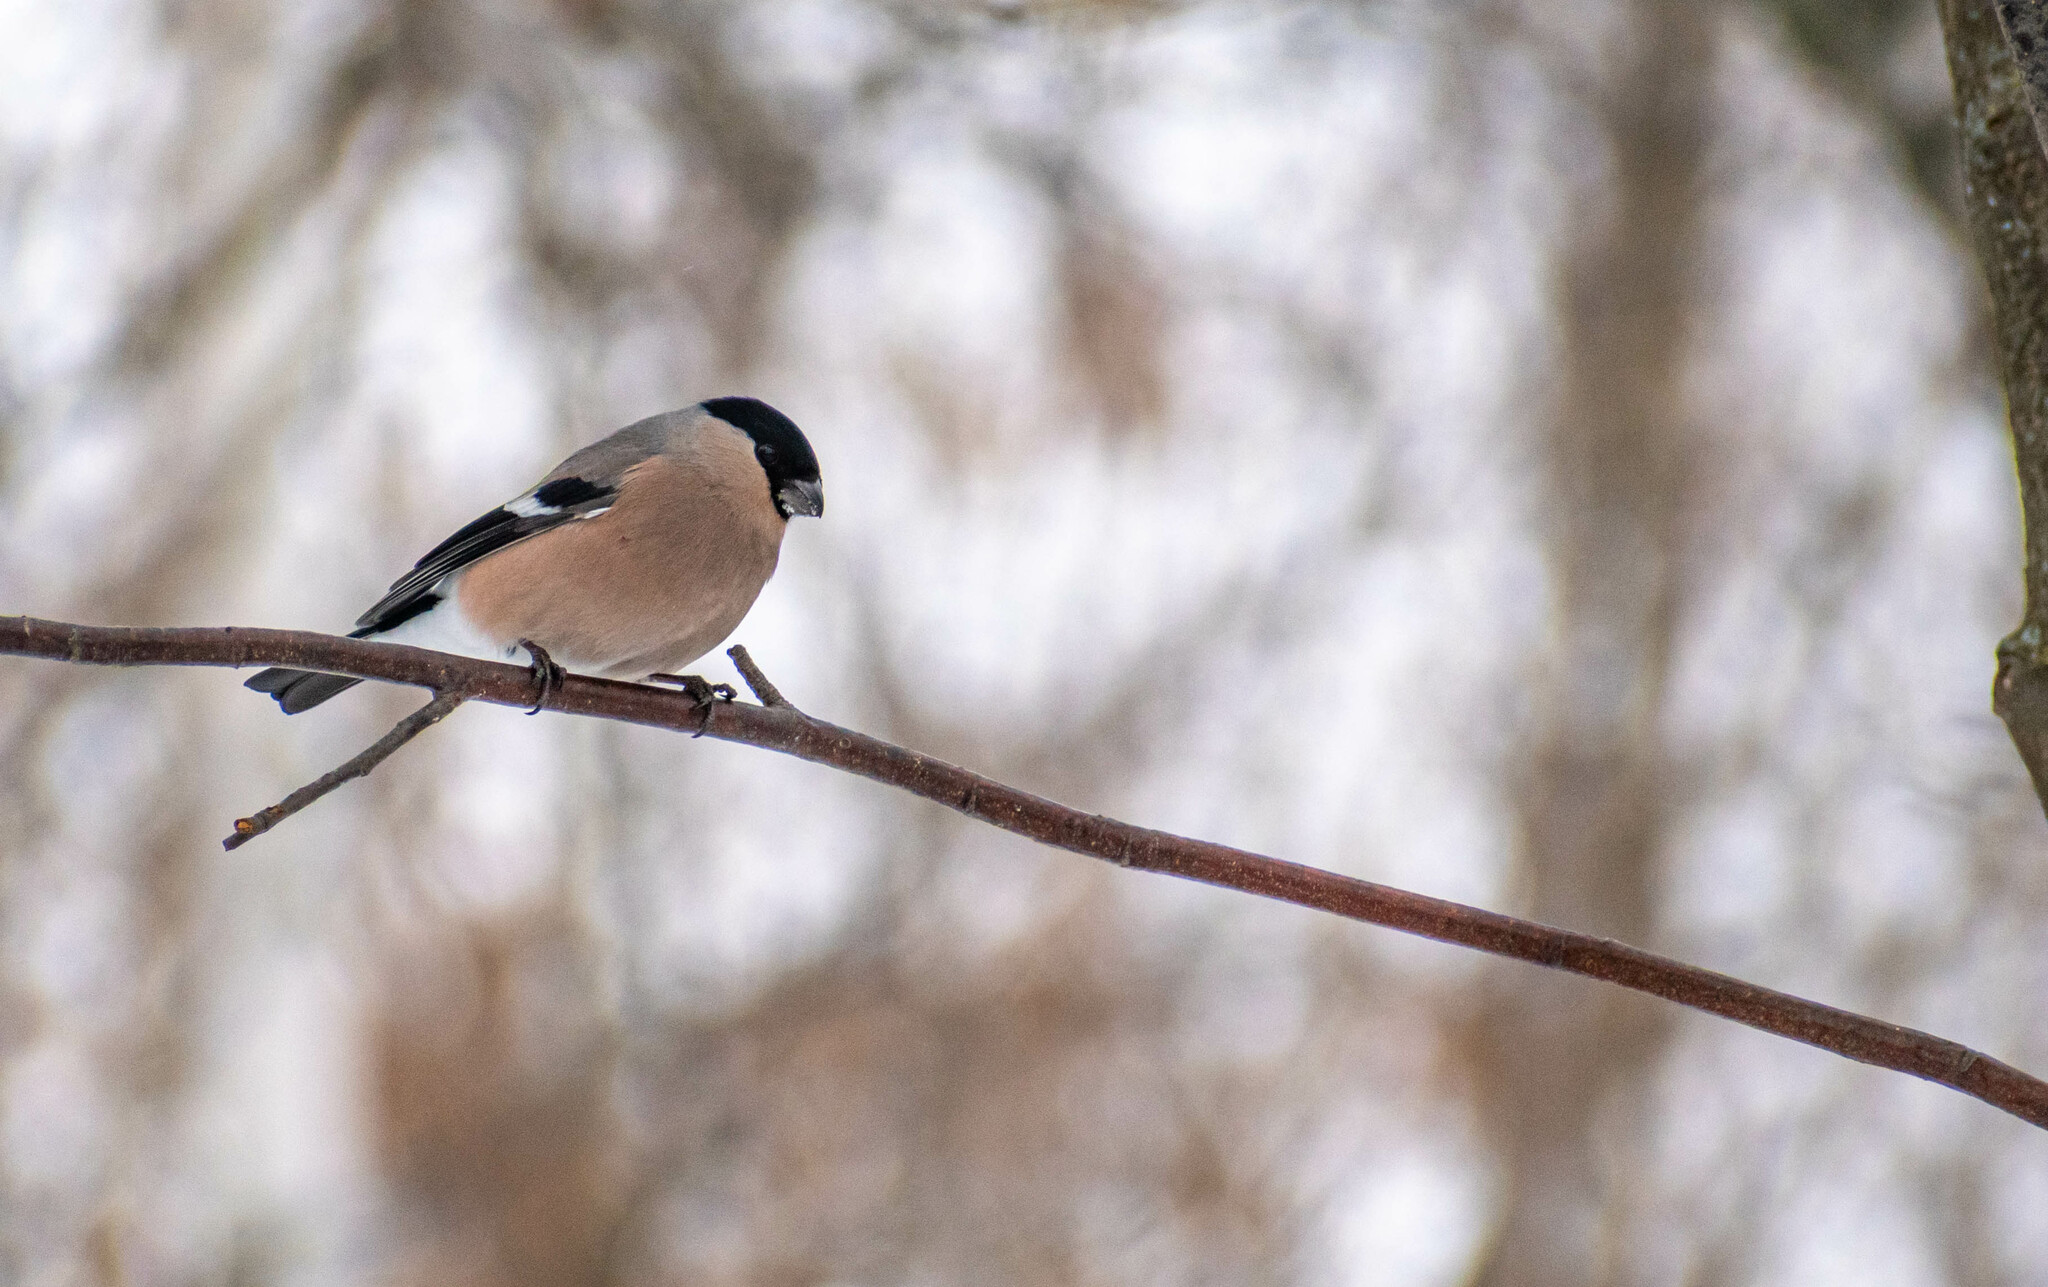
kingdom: Animalia
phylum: Chordata
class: Aves
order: Passeriformes
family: Fringillidae
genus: Pyrrhula
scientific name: Pyrrhula pyrrhula
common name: Eurasian bullfinch
